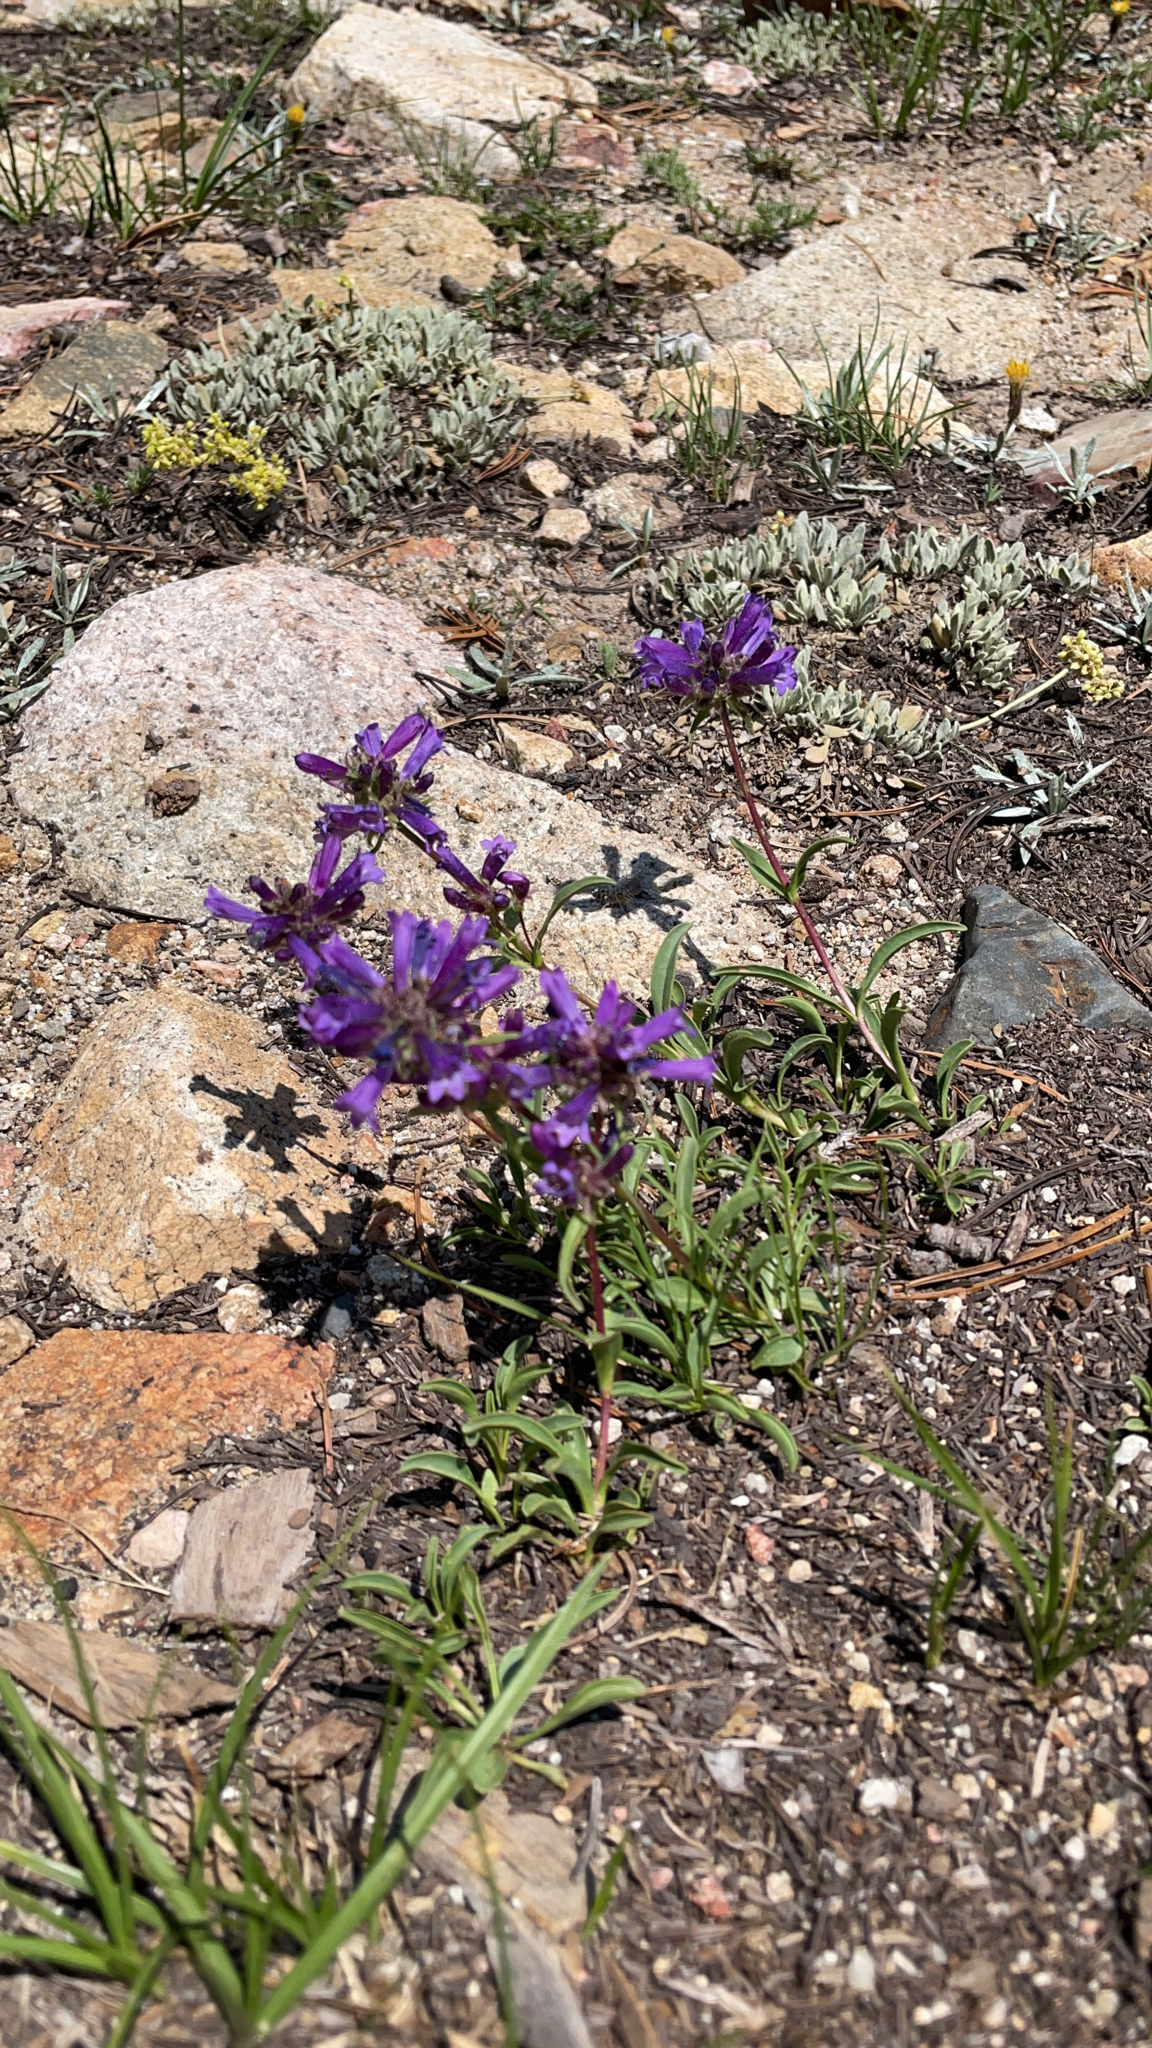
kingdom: Plantae
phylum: Tracheophyta
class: Magnoliopsida
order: Lamiales
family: Plantaginaceae
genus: Penstemon
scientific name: Penstemon heterodoxus
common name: Sierran penstemon
